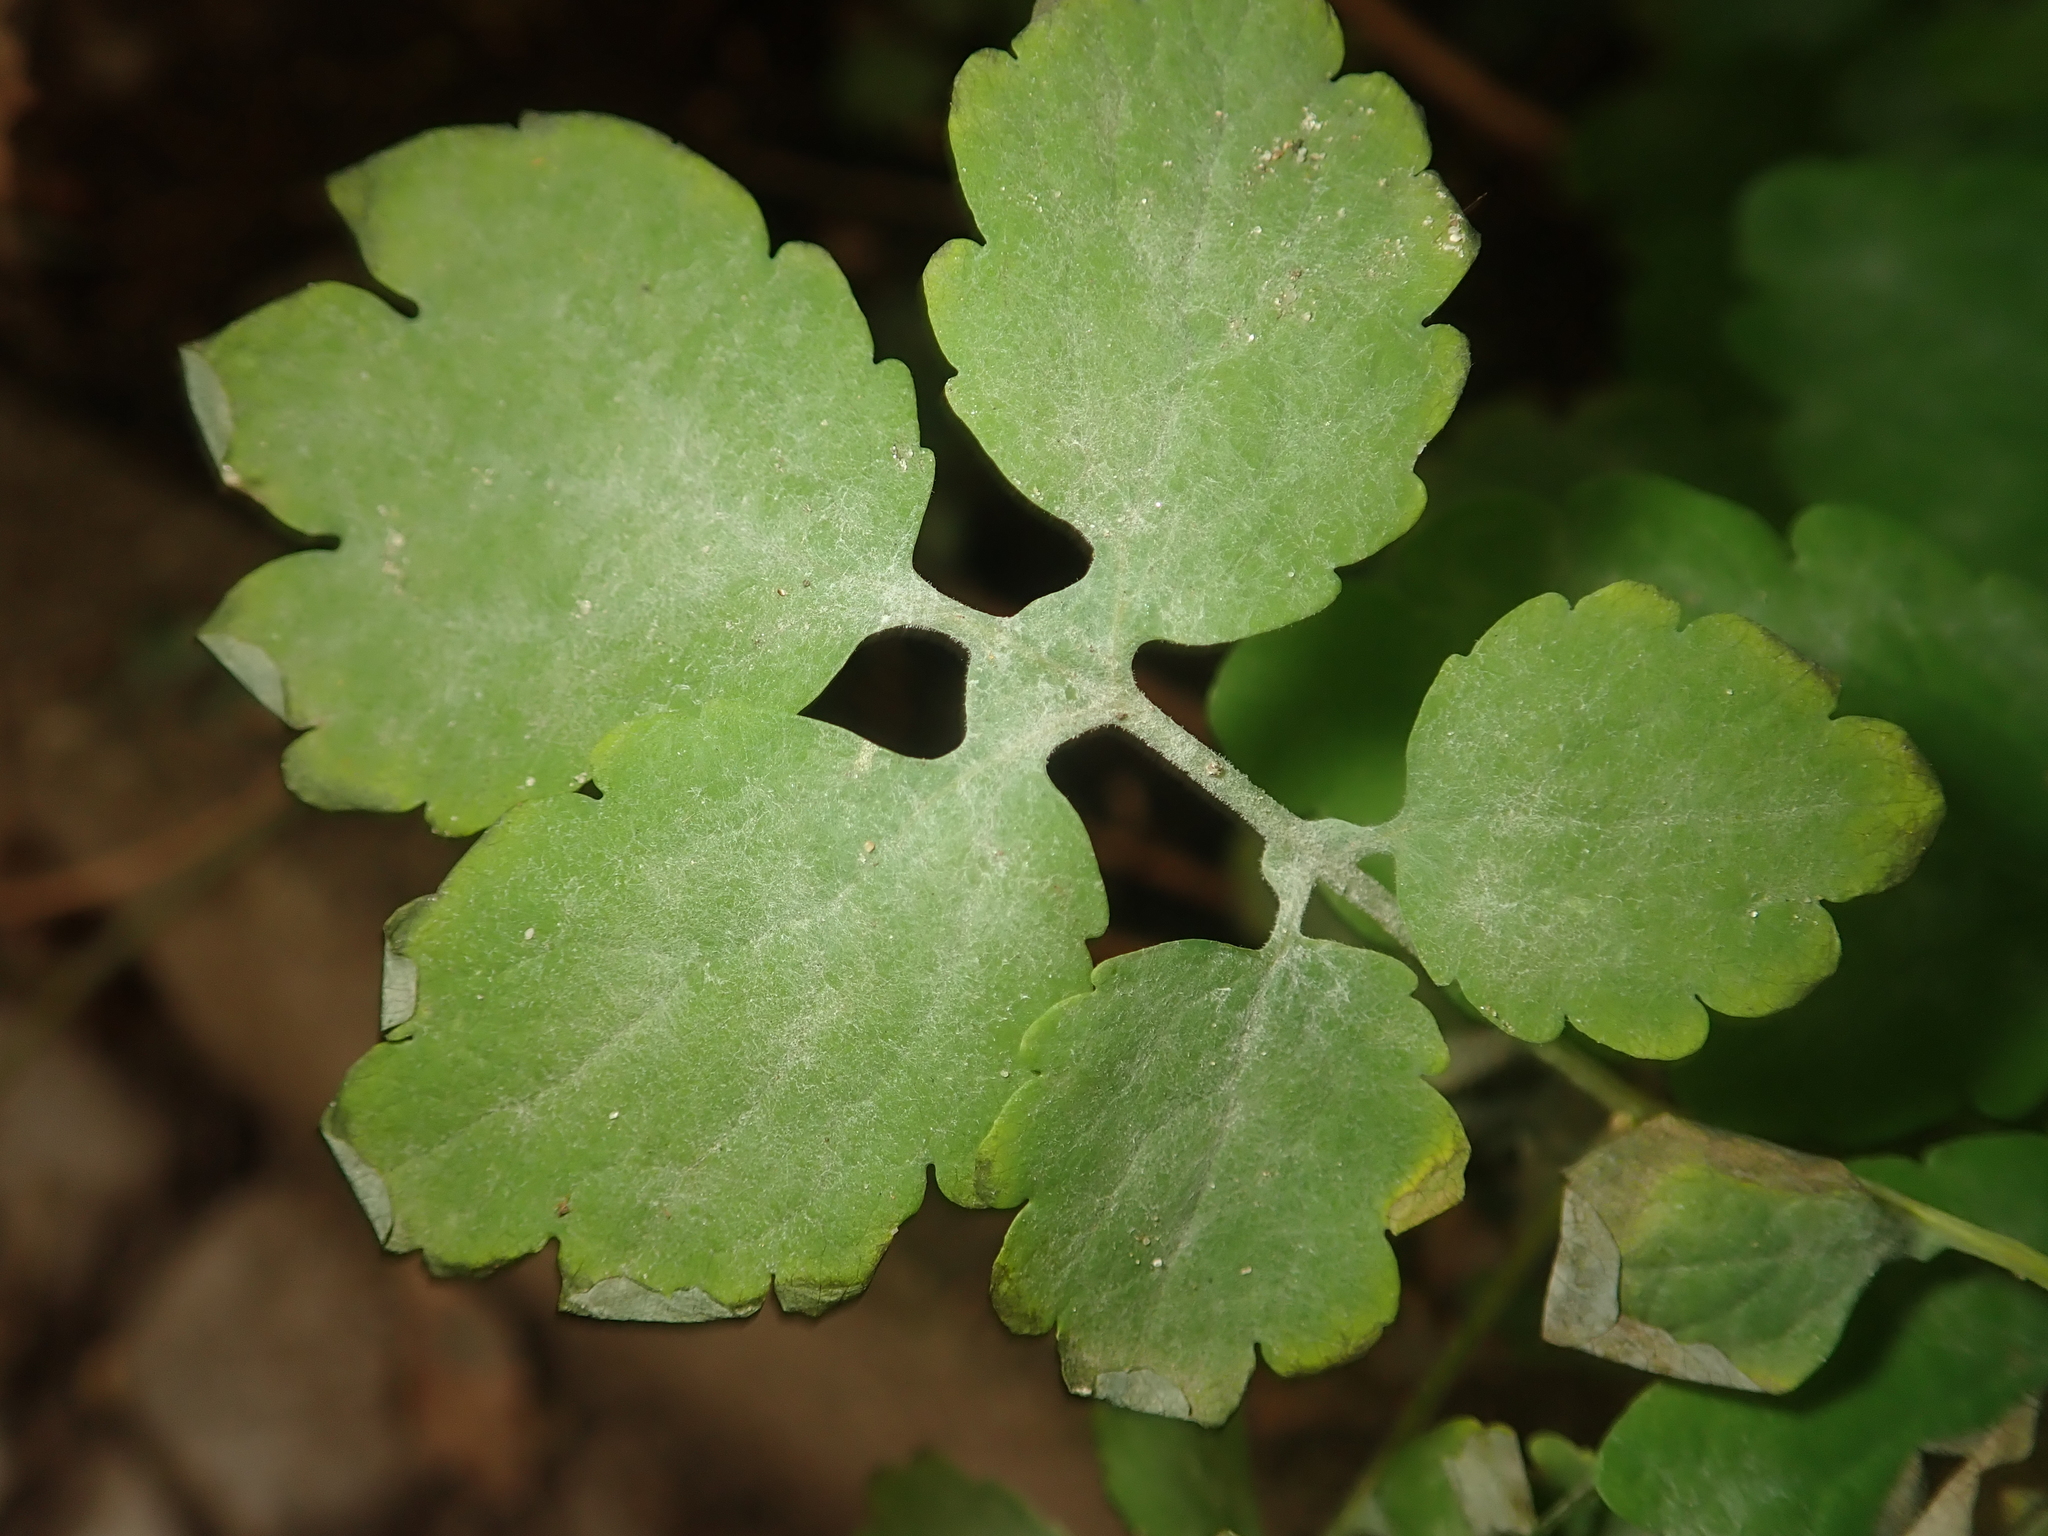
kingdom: Fungi
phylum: Ascomycota
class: Leotiomycetes
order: Helotiales
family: Erysiphaceae
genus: Erysiphe
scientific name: Erysiphe macleayae
